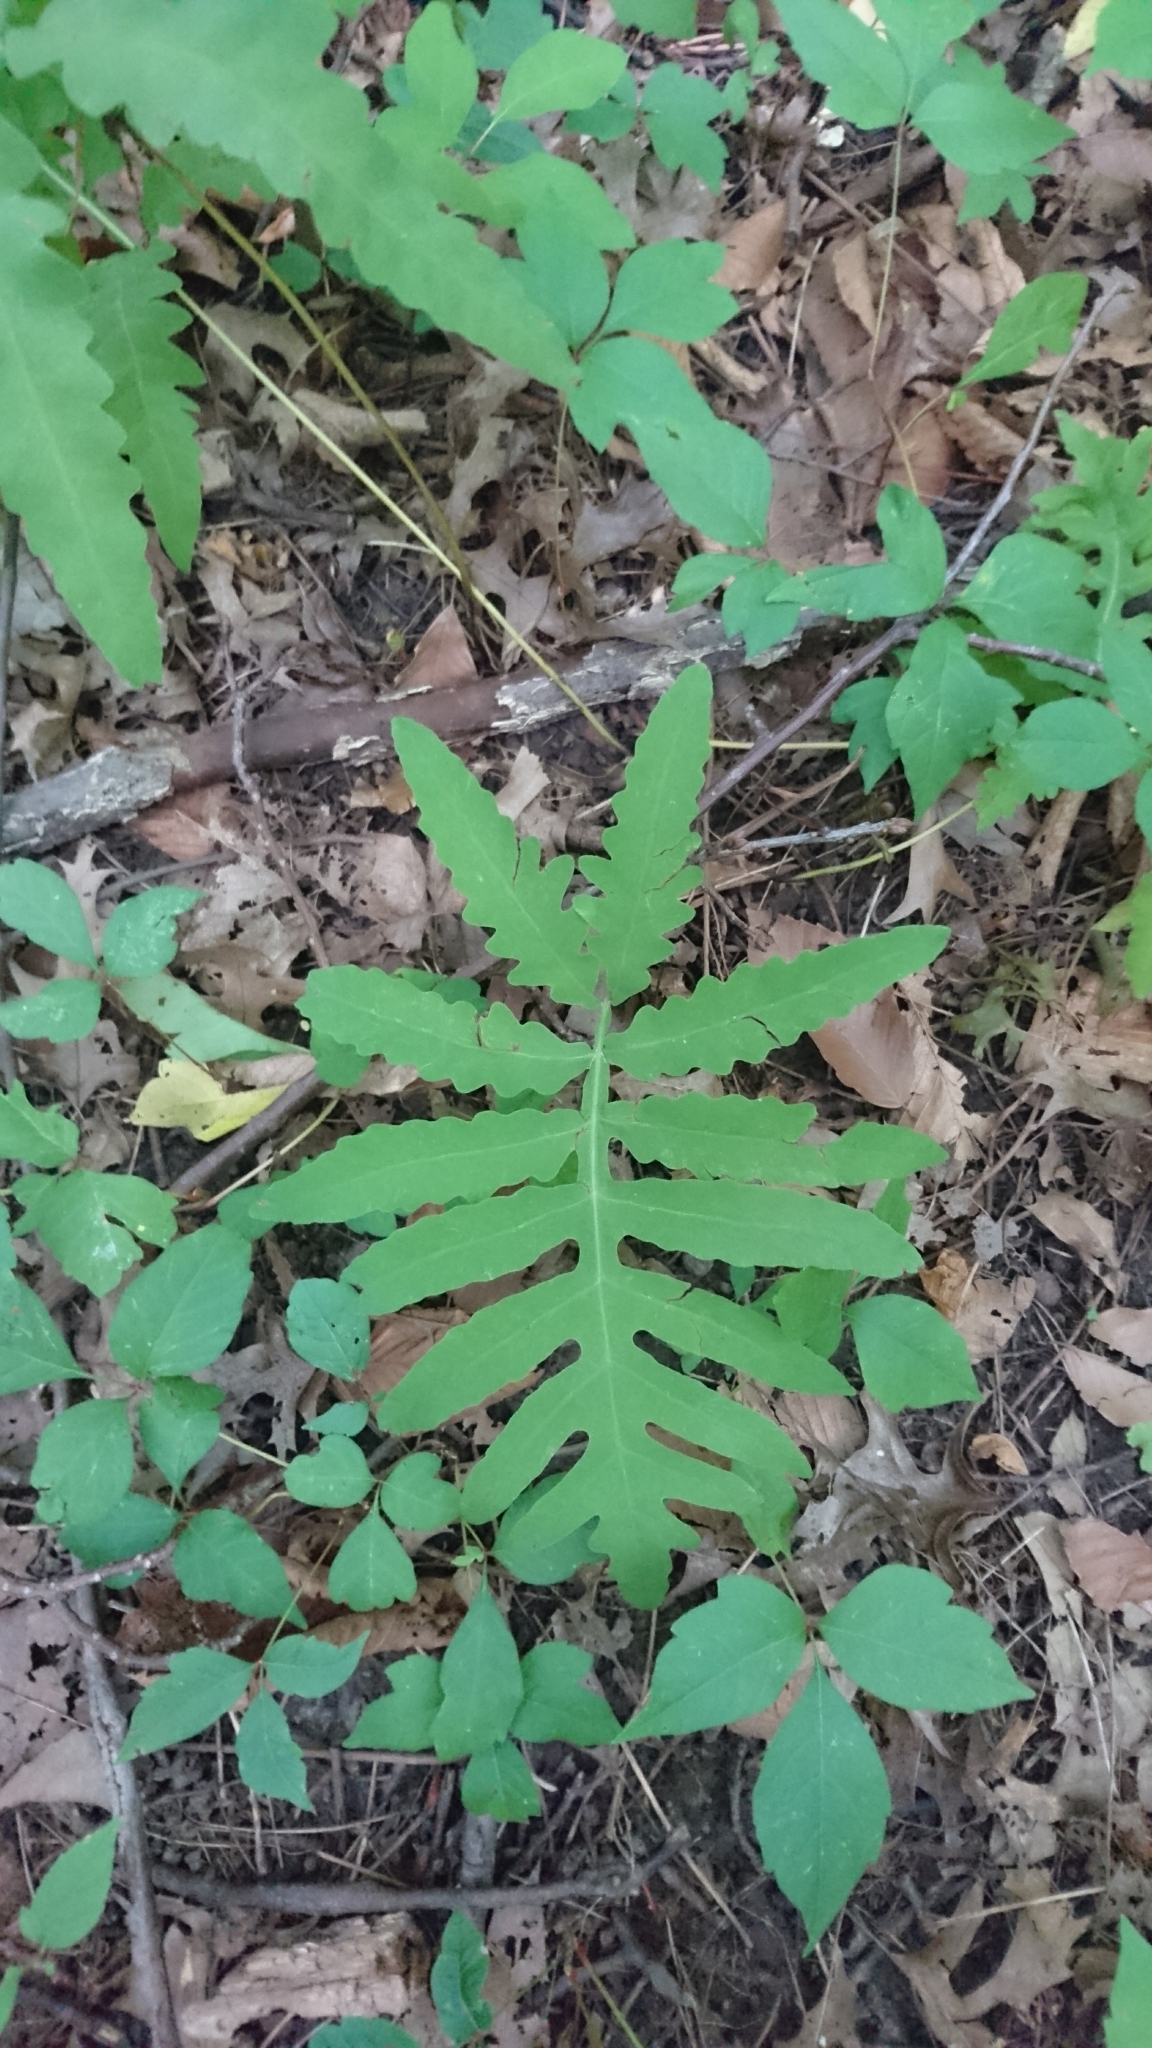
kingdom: Plantae
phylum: Tracheophyta
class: Polypodiopsida
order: Polypodiales
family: Onocleaceae
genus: Onoclea
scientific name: Onoclea sensibilis
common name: Sensitive fern
